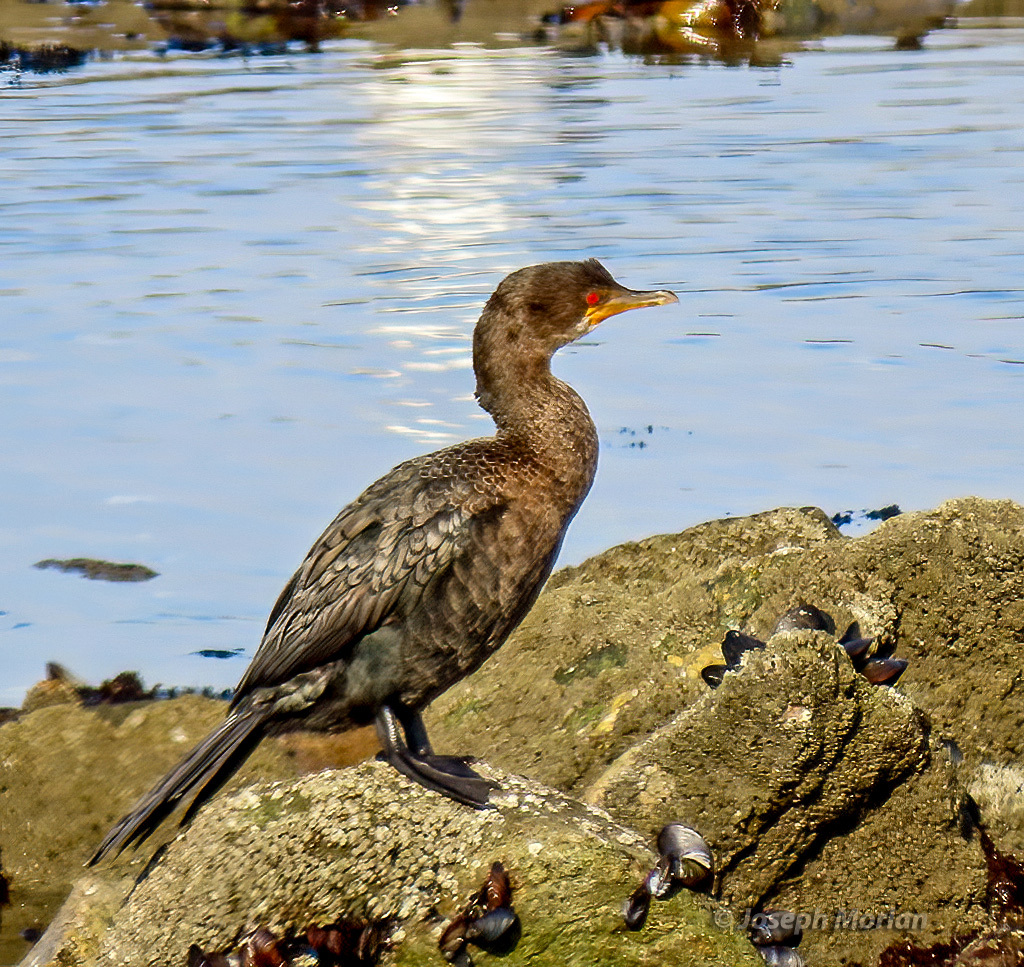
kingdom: Animalia
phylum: Chordata
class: Aves
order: Suliformes
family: Phalacrocoracidae
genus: Microcarbo
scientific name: Microcarbo coronatus
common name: Crowned cormorant
